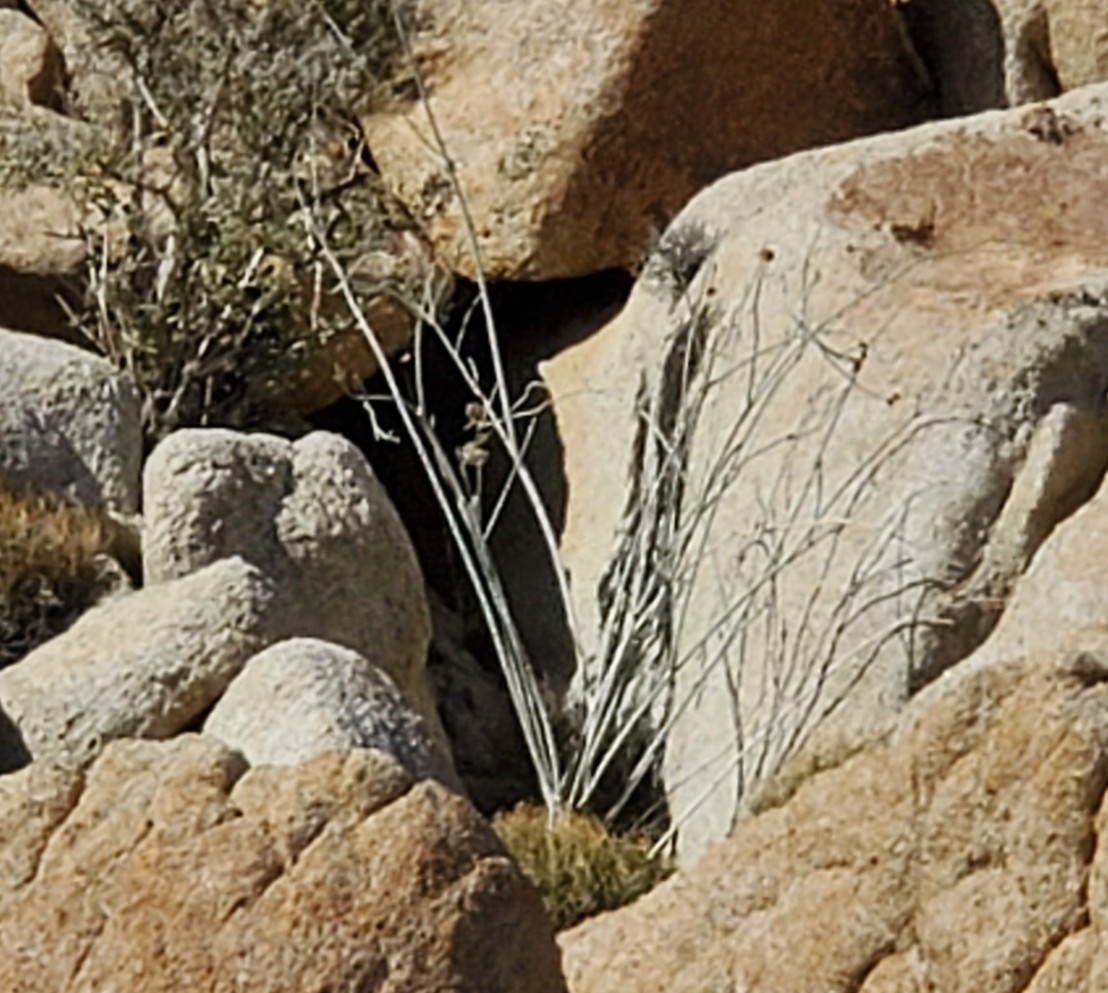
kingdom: Plantae
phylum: Tracheophyta
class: Magnoliopsida
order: Gentianales
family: Apocynaceae
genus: Asclepias
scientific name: Asclepias albicans
